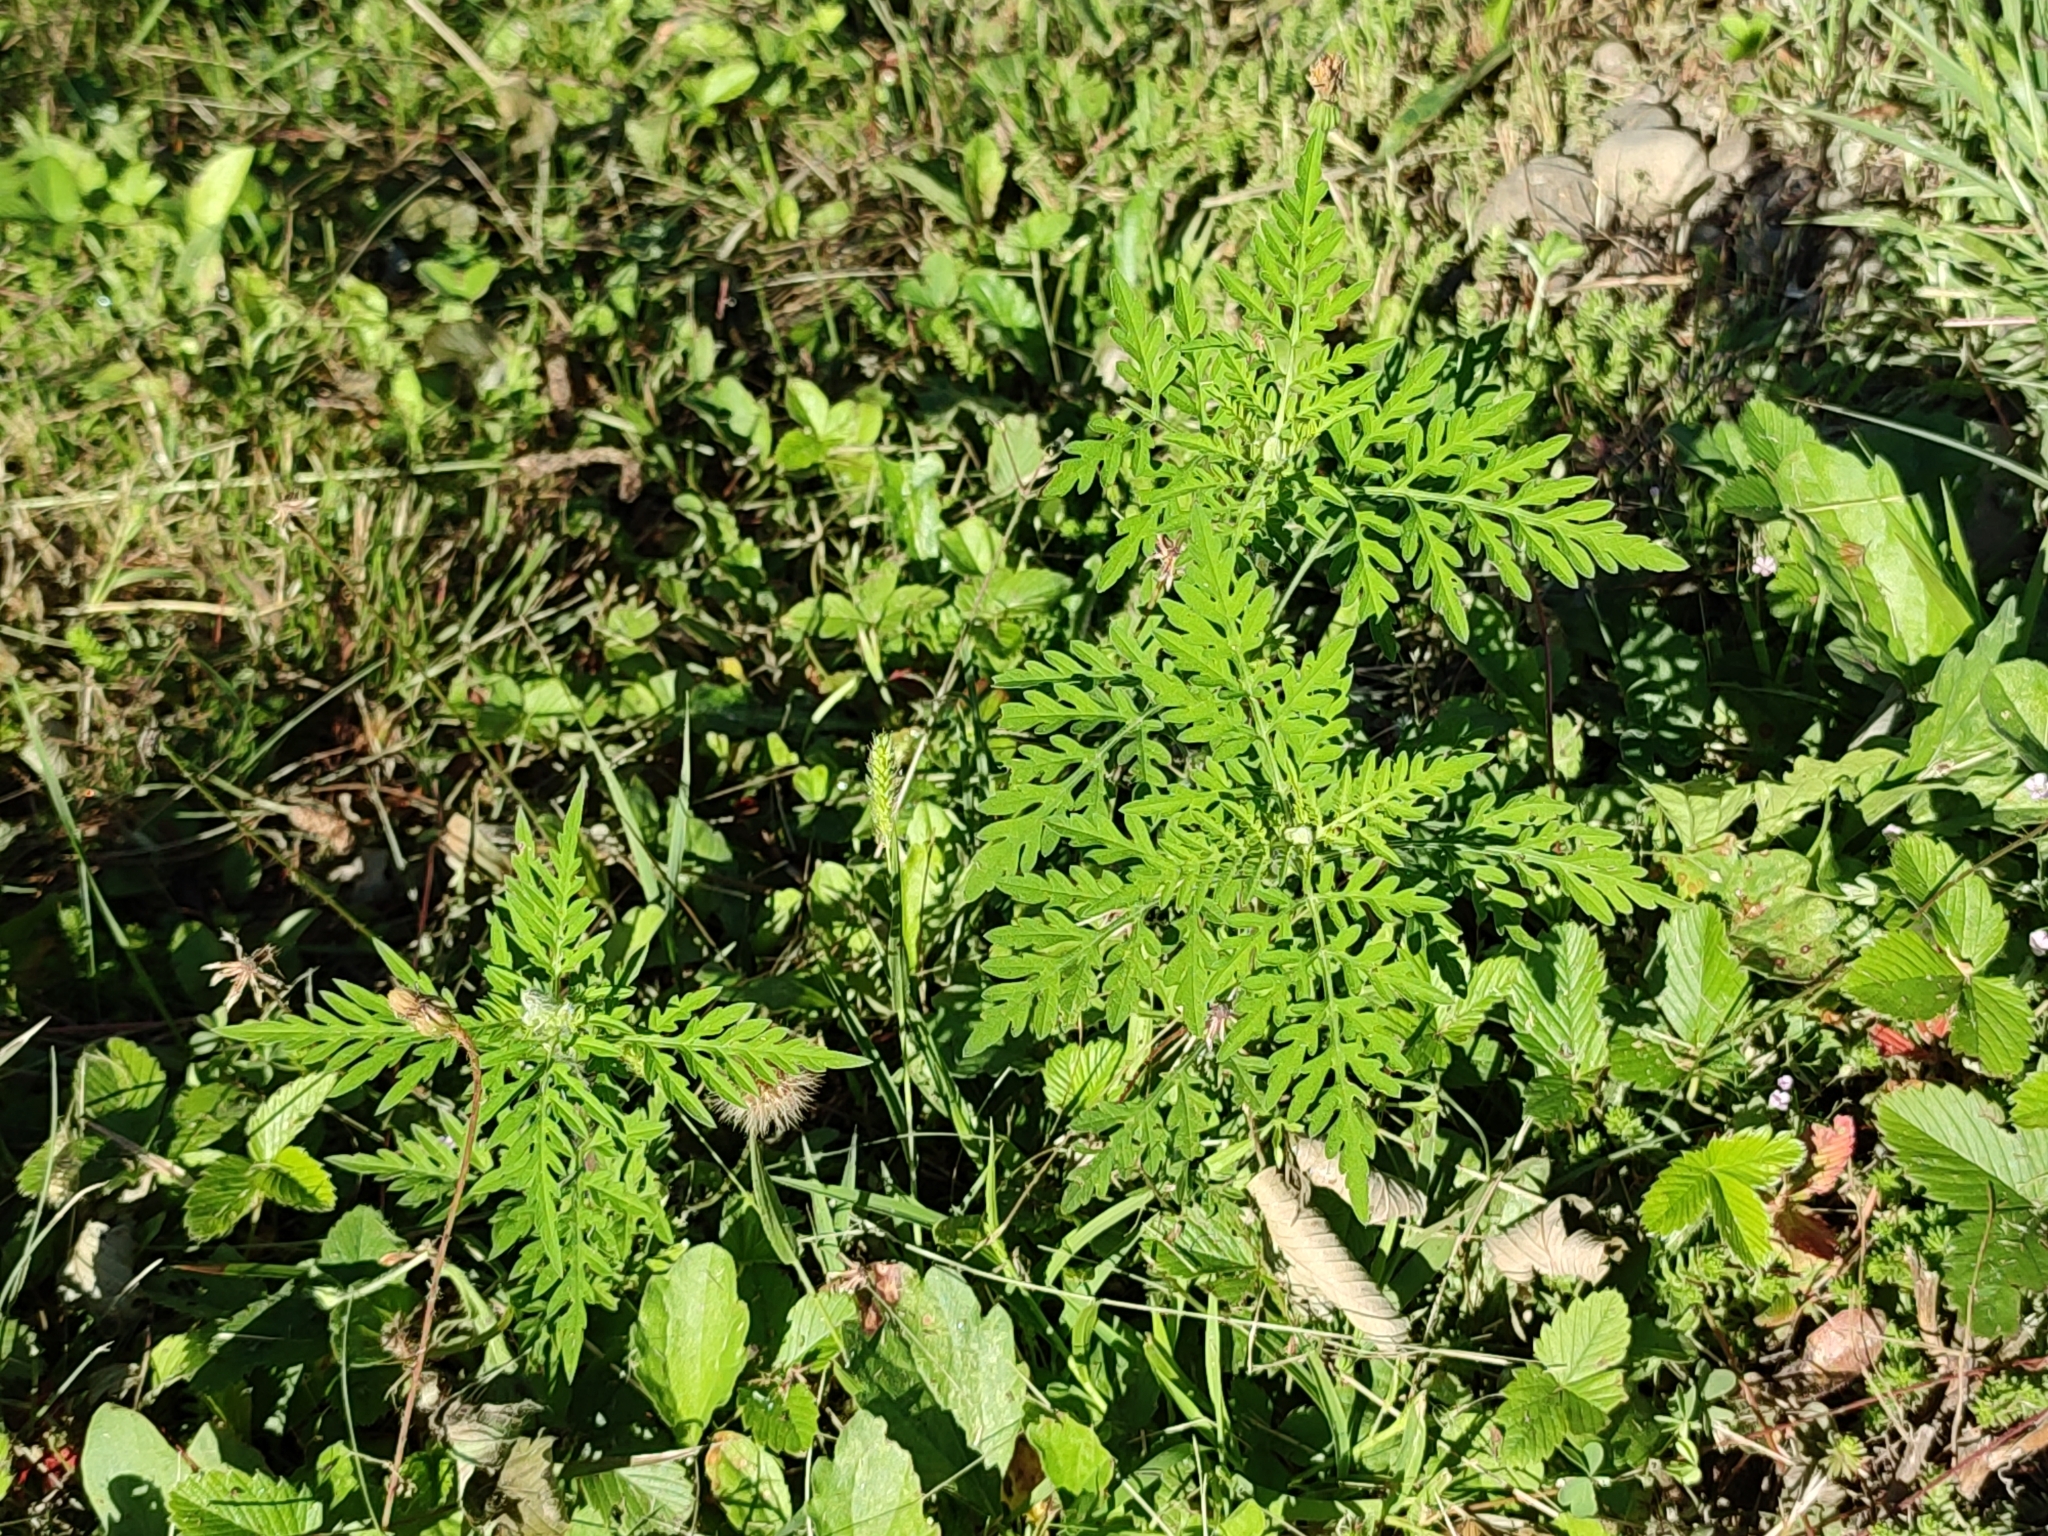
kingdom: Plantae
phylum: Tracheophyta
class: Magnoliopsida
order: Asterales
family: Asteraceae
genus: Ambrosia
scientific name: Ambrosia artemisiifolia
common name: Annual ragweed
